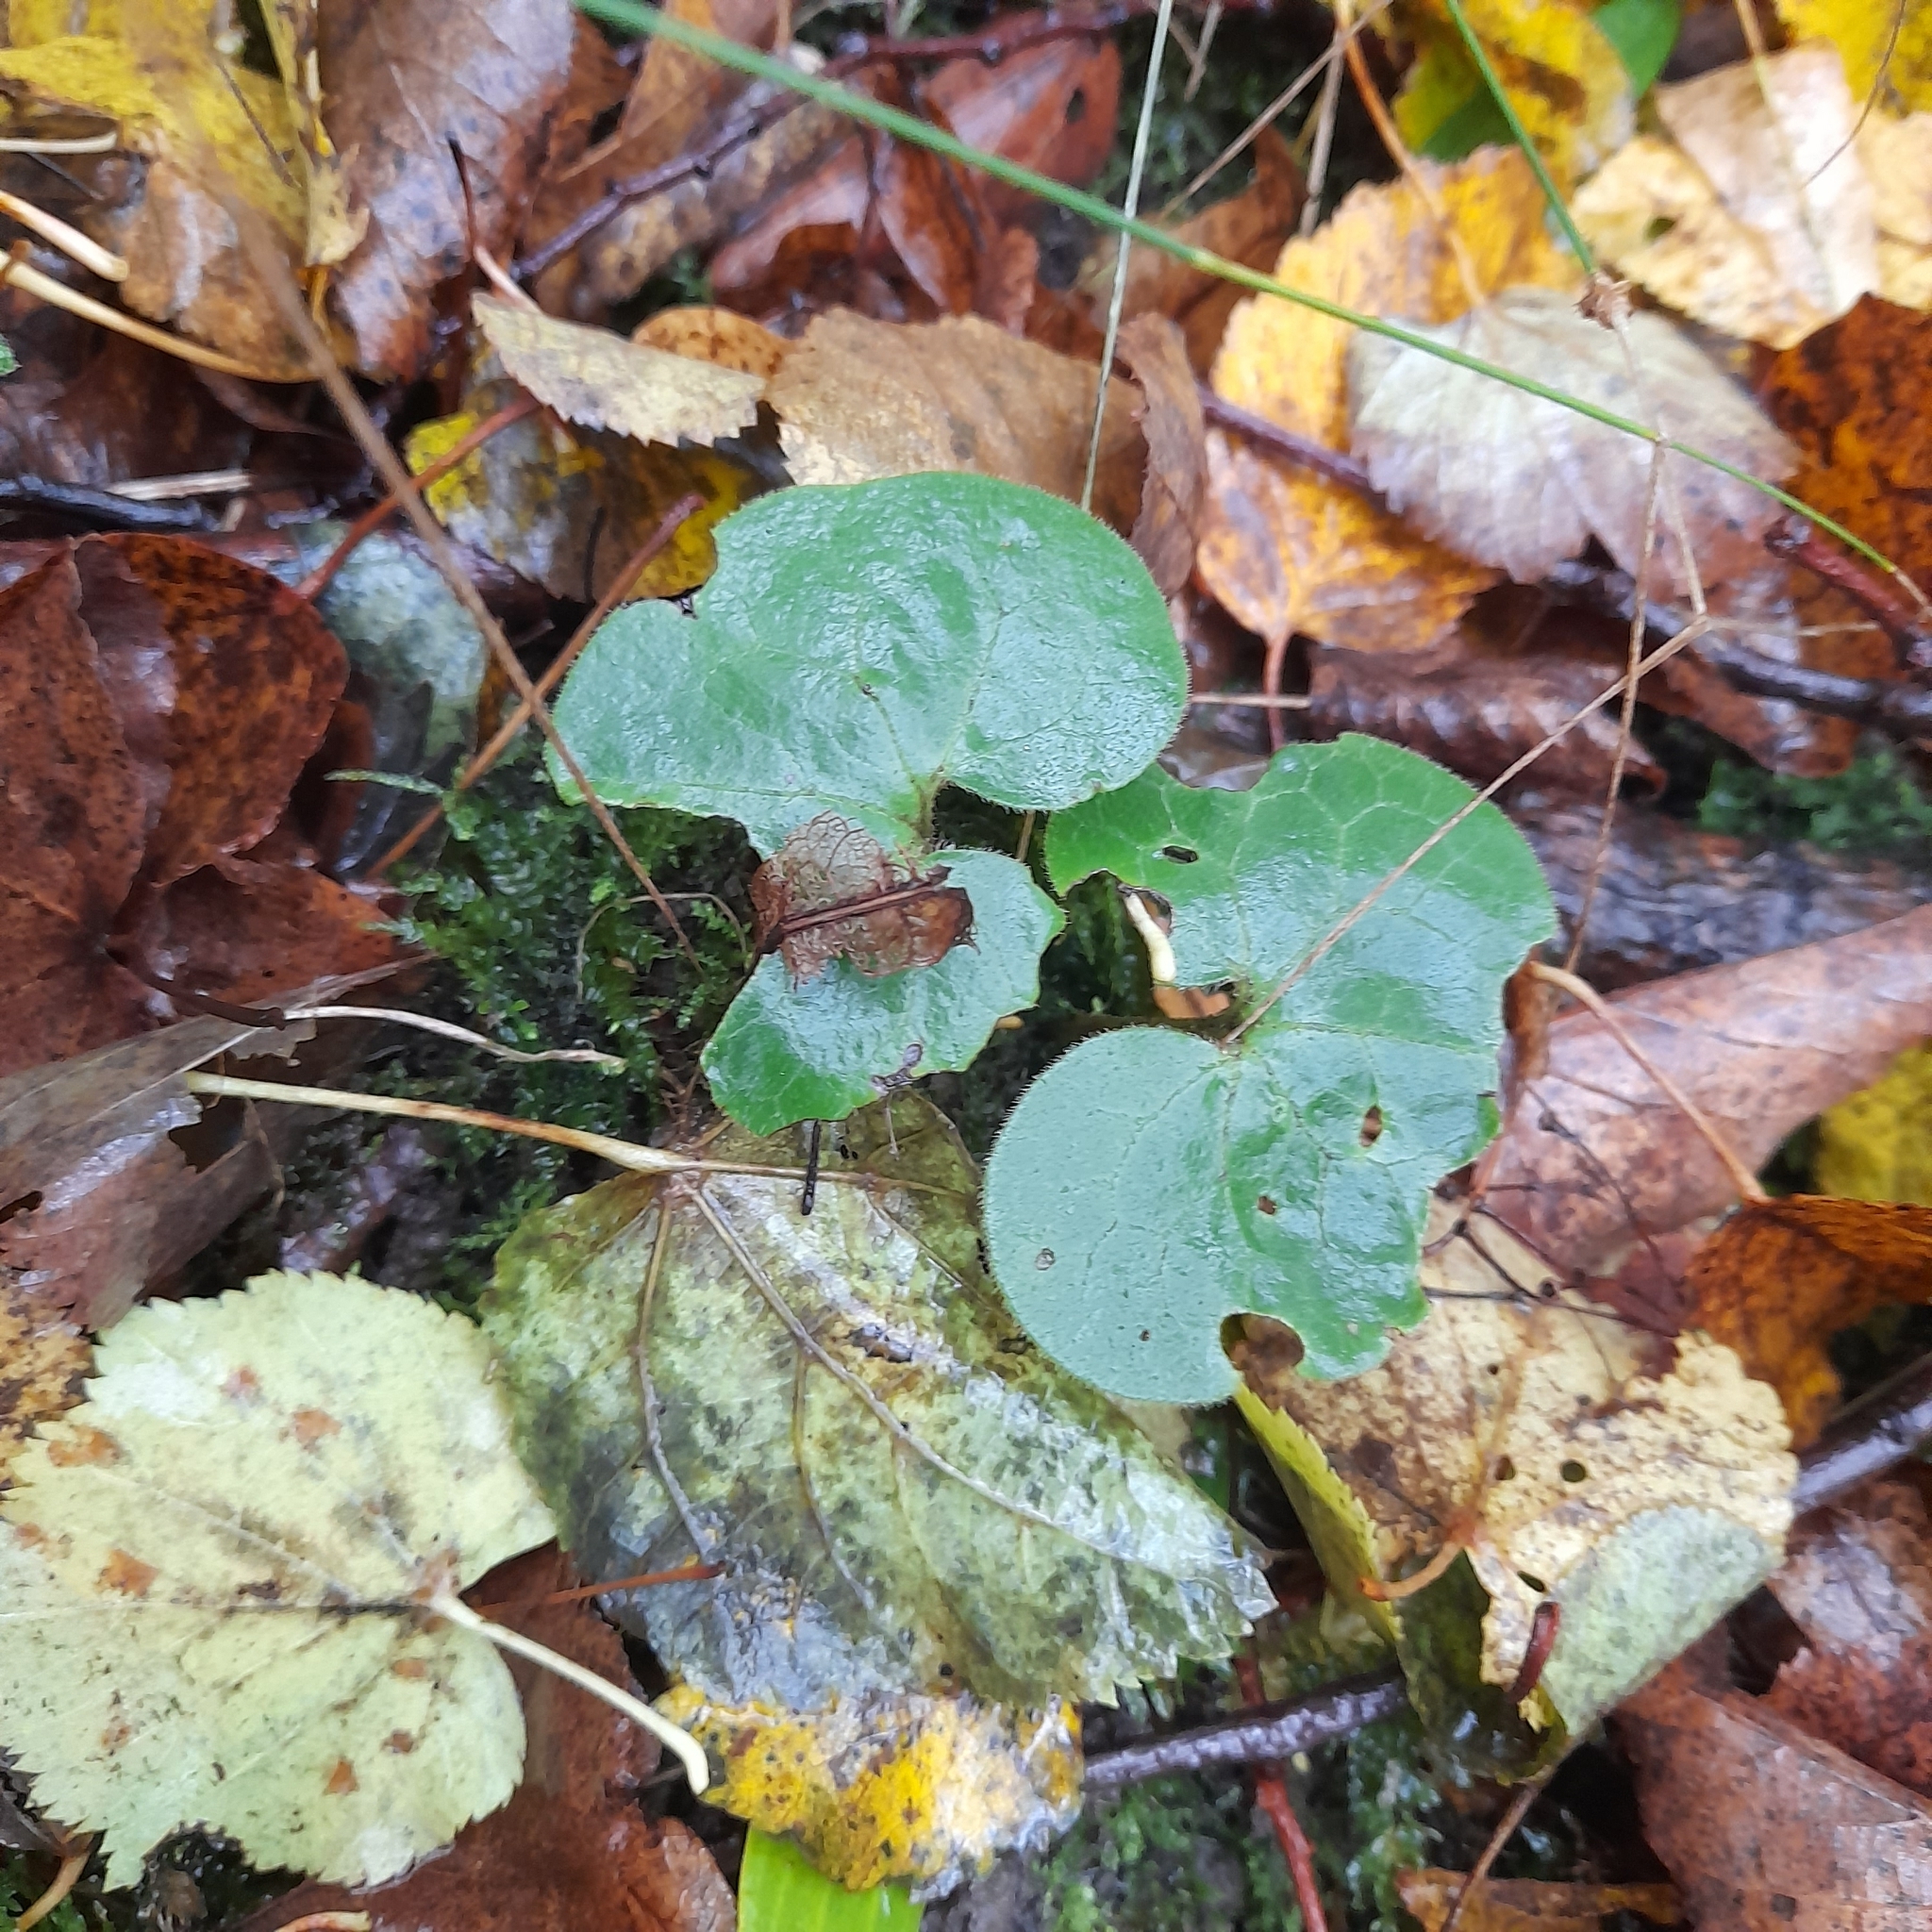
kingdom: Plantae
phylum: Tracheophyta
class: Magnoliopsida
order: Piperales
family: Aristolochiaceae
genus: Asarum
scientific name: Asarum europaeum
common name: Asarabacca
